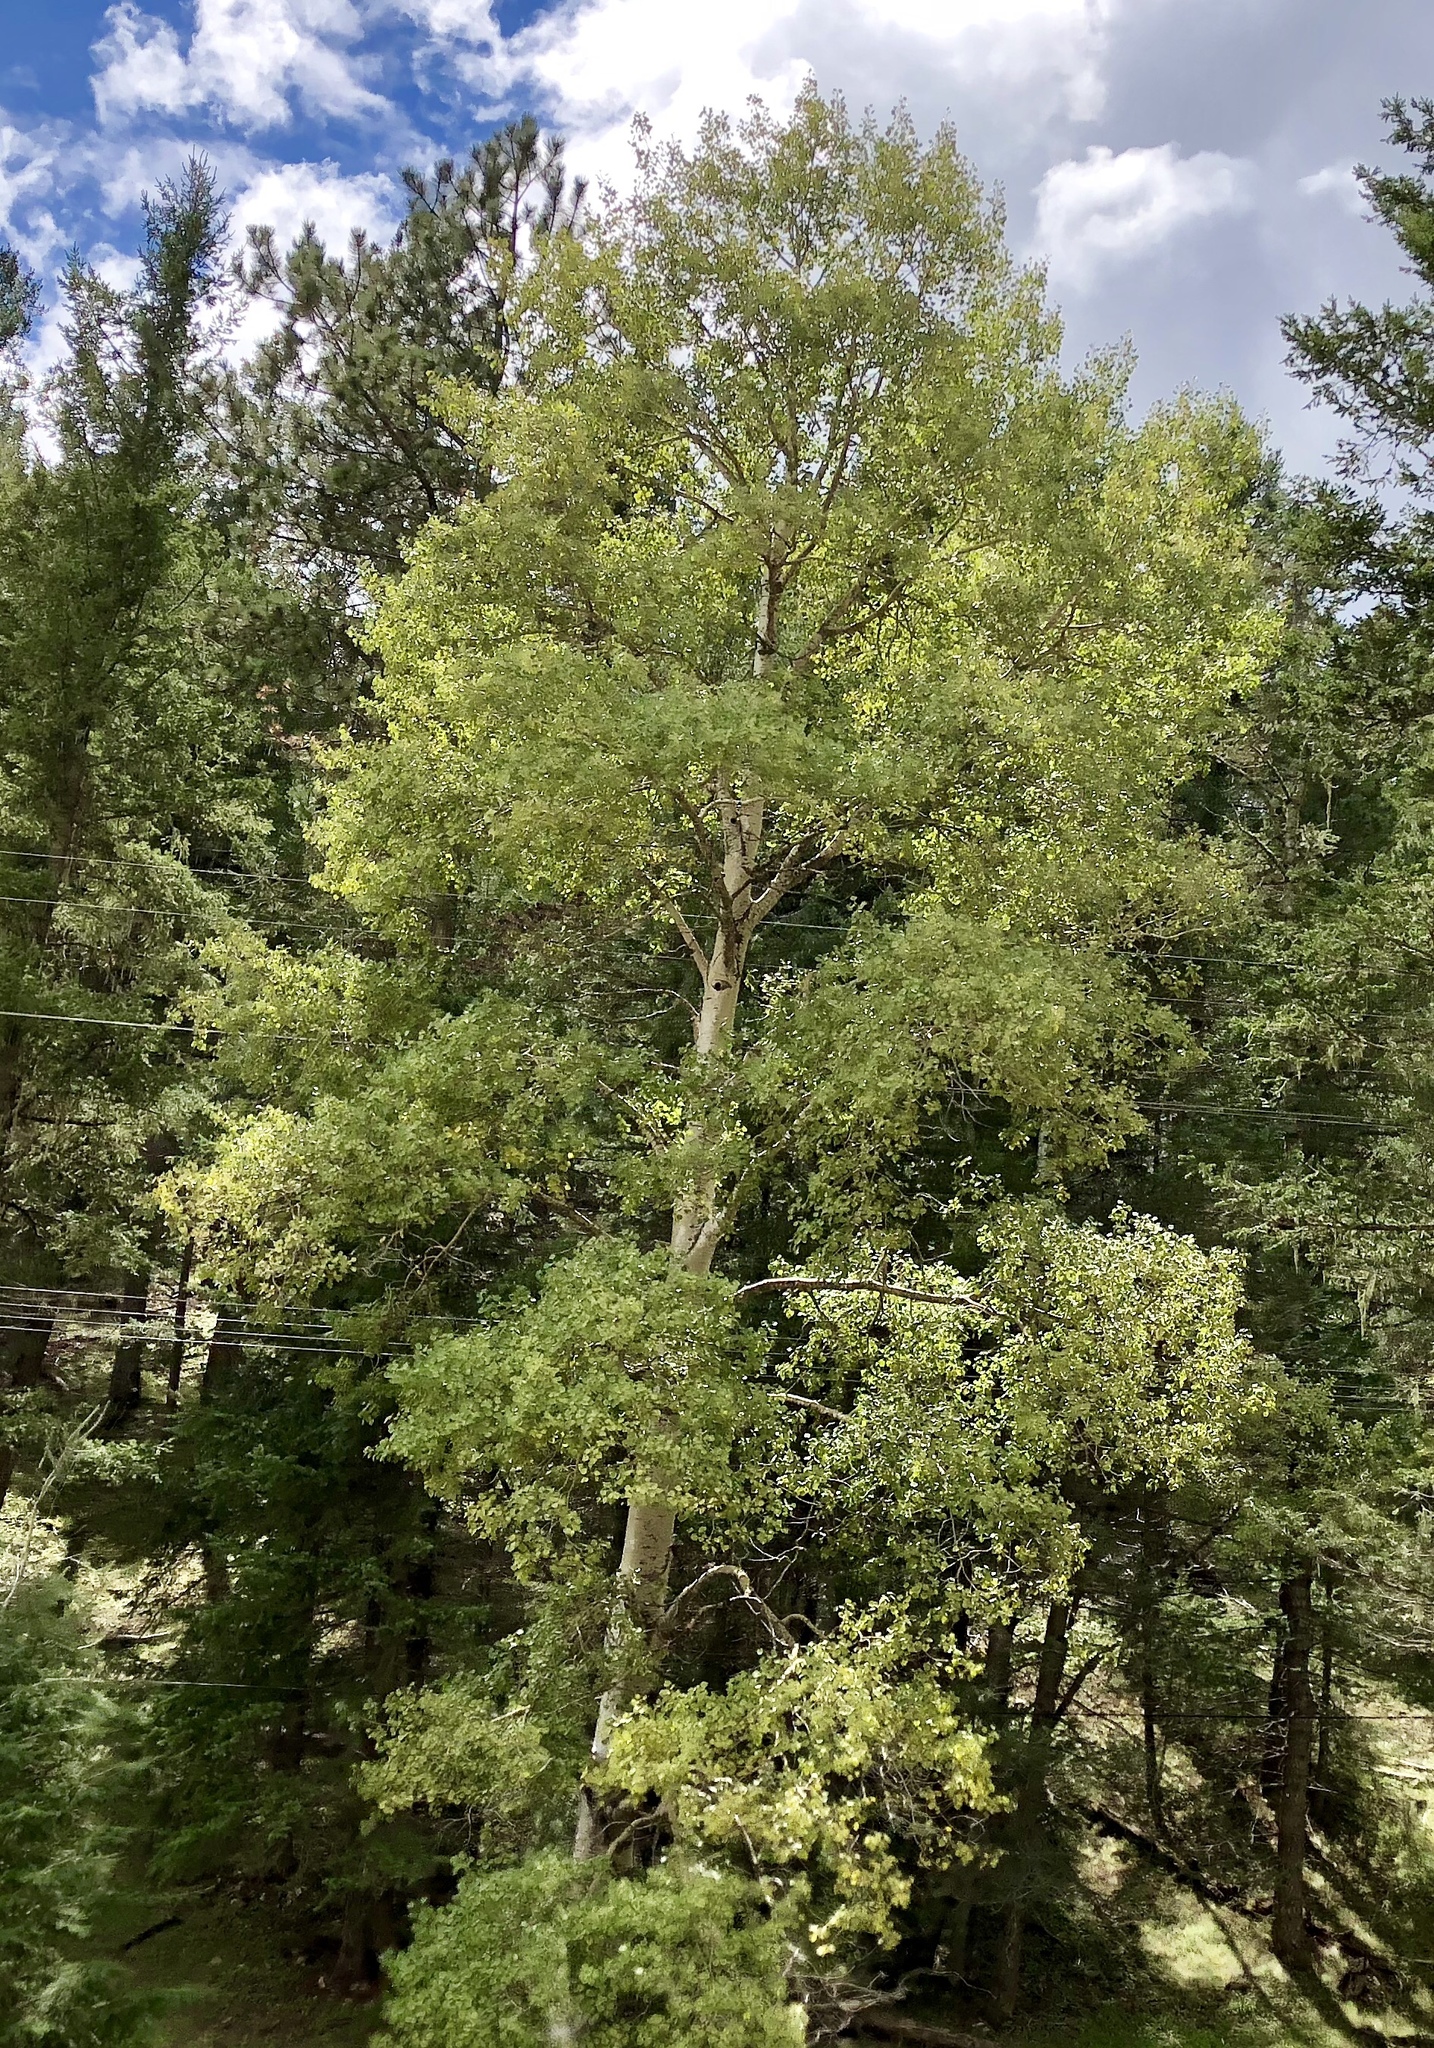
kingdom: Plantae
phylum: Tracheophyta
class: Magnoliopsida
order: Malpighiales
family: Salicaceae
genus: Populus
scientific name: Populus tremuloides
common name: Quaking aspen
